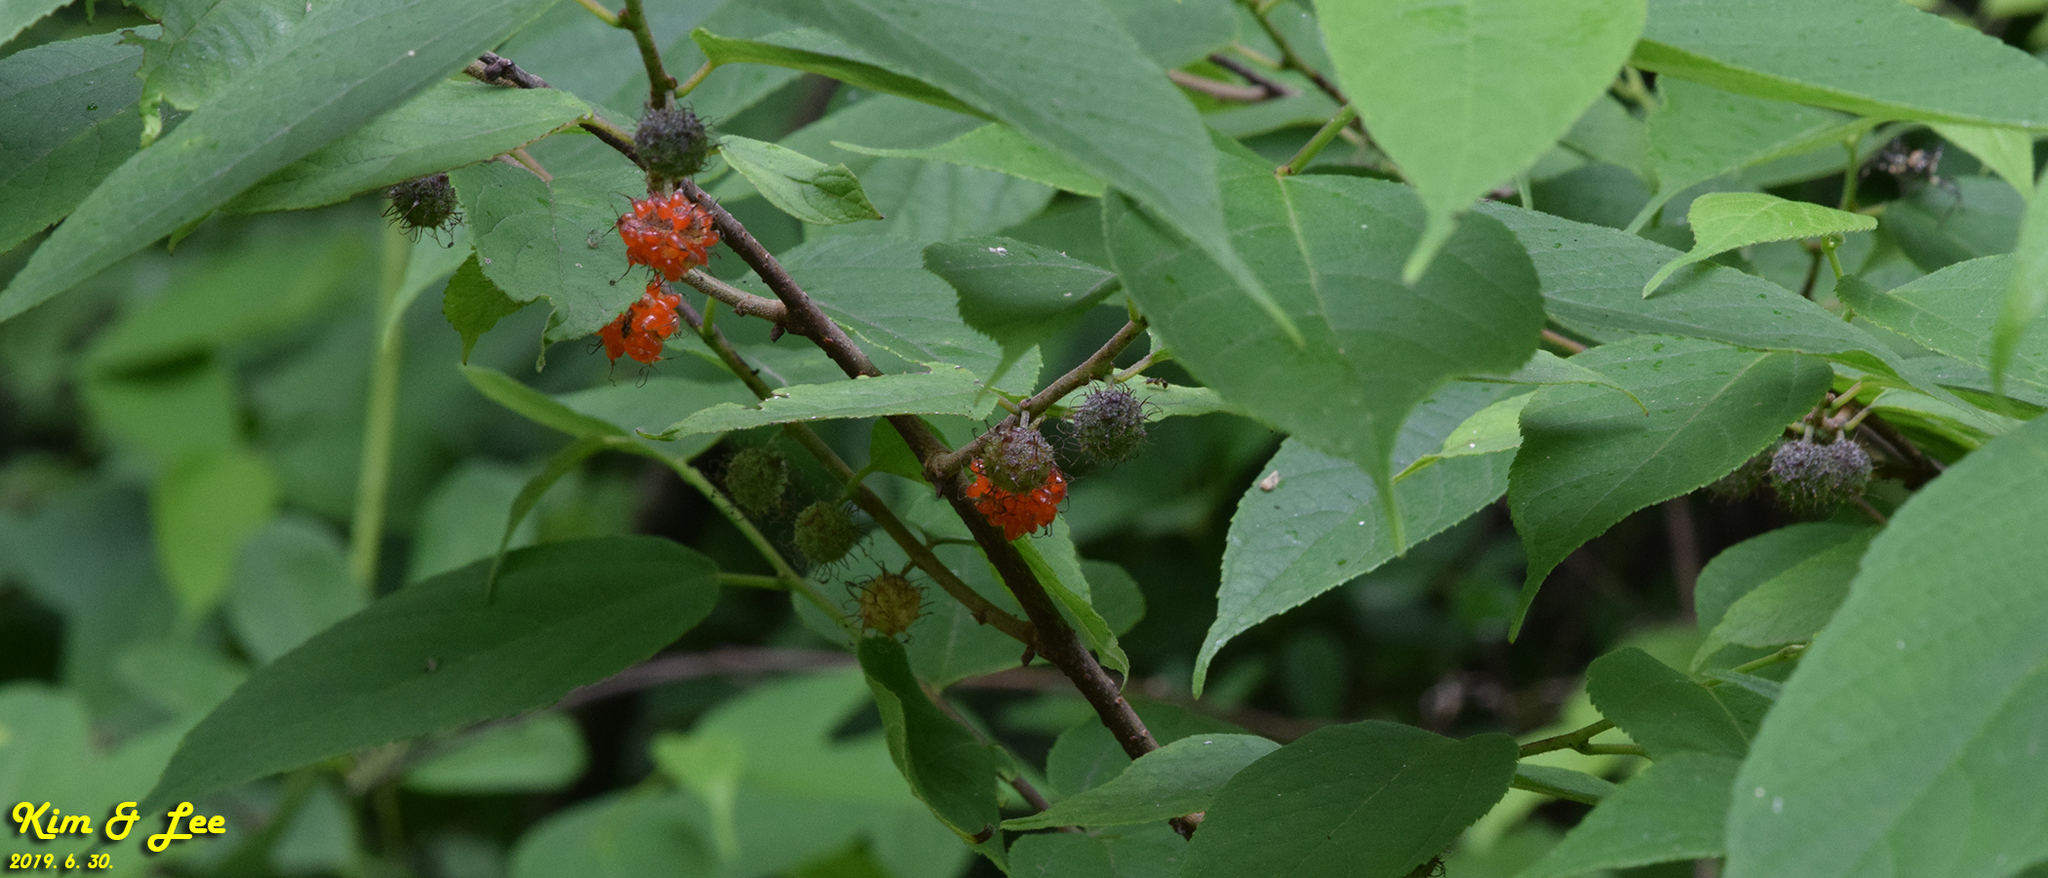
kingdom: Plantae
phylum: Tracheophyta
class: Magnoliopsida
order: Rosales
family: Moraceae
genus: Broussonetia
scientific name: Broussonetia papyrifera
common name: Paper mulberry
